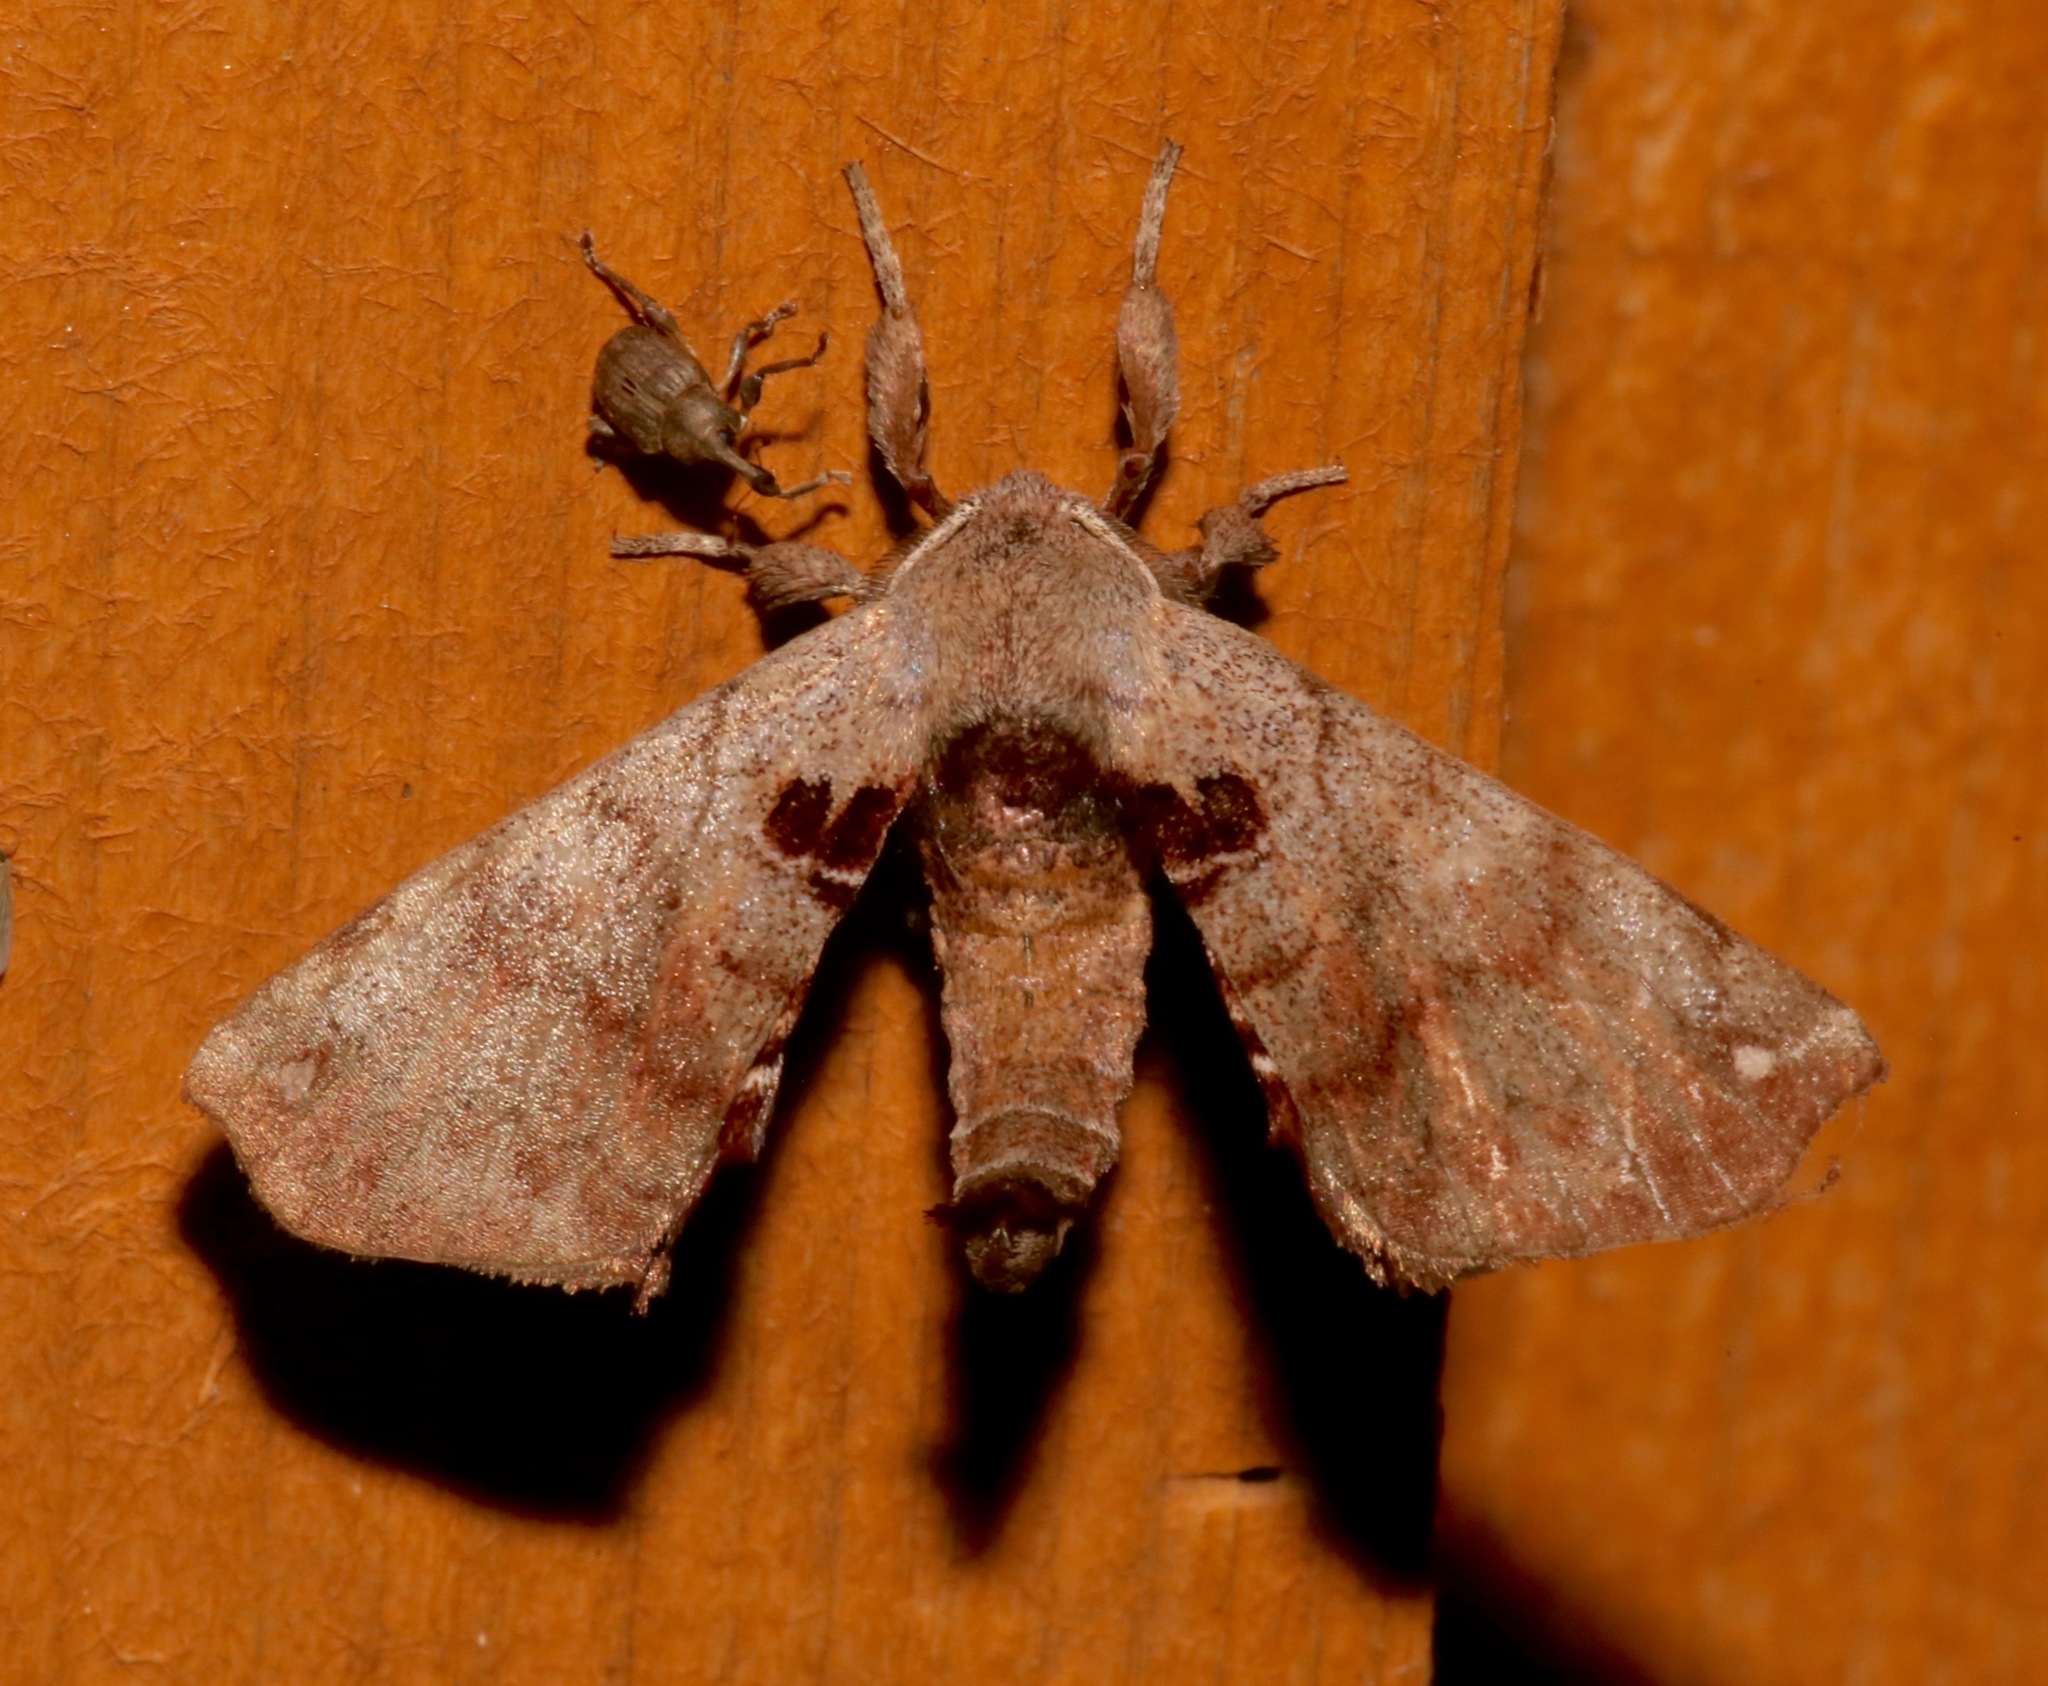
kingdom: Animalia
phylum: Arthropoda
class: Insecta
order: Lepidoptera
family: Apatelodidae
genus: Hygrochroa
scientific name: Hygrochroa Apatelodes torrefacta
